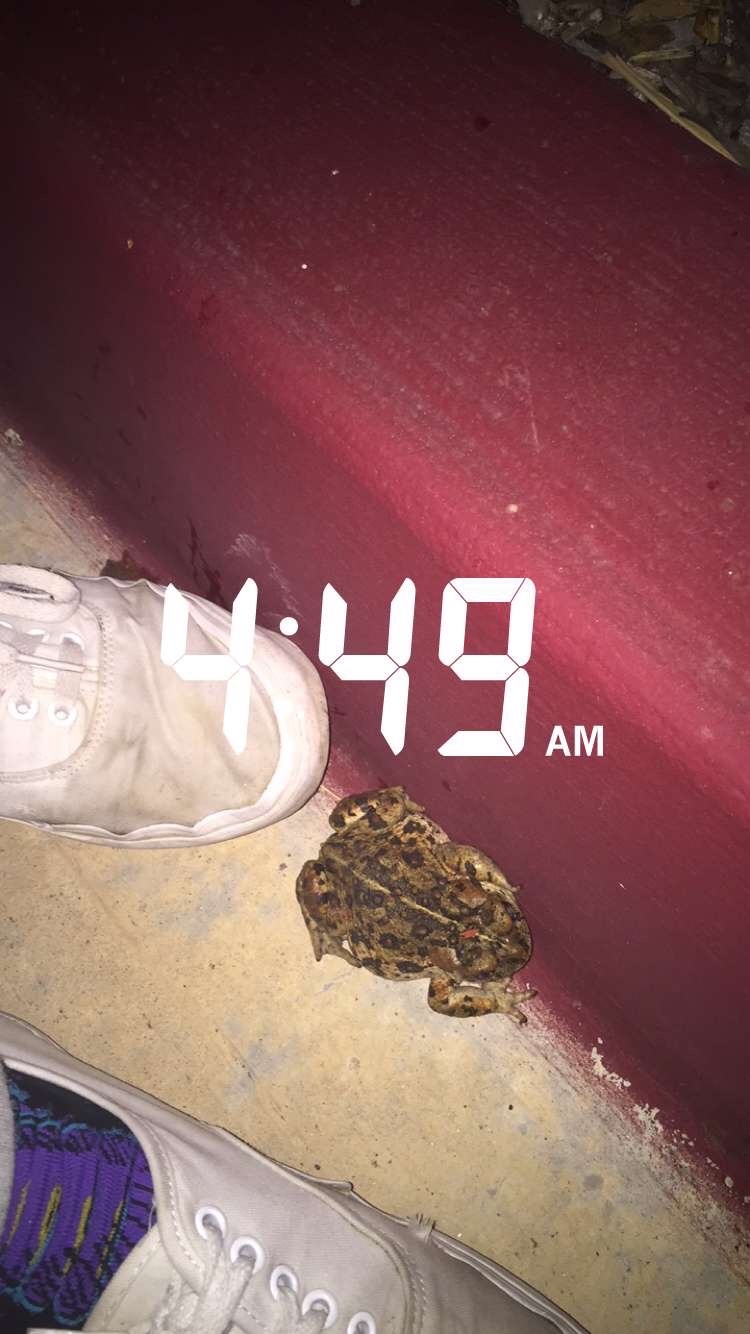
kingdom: Animalia
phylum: Chordata
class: Amphibia
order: Anura
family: Bufonidae
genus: Anaxyrus
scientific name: Anaxyrus boreas
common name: Western toad
